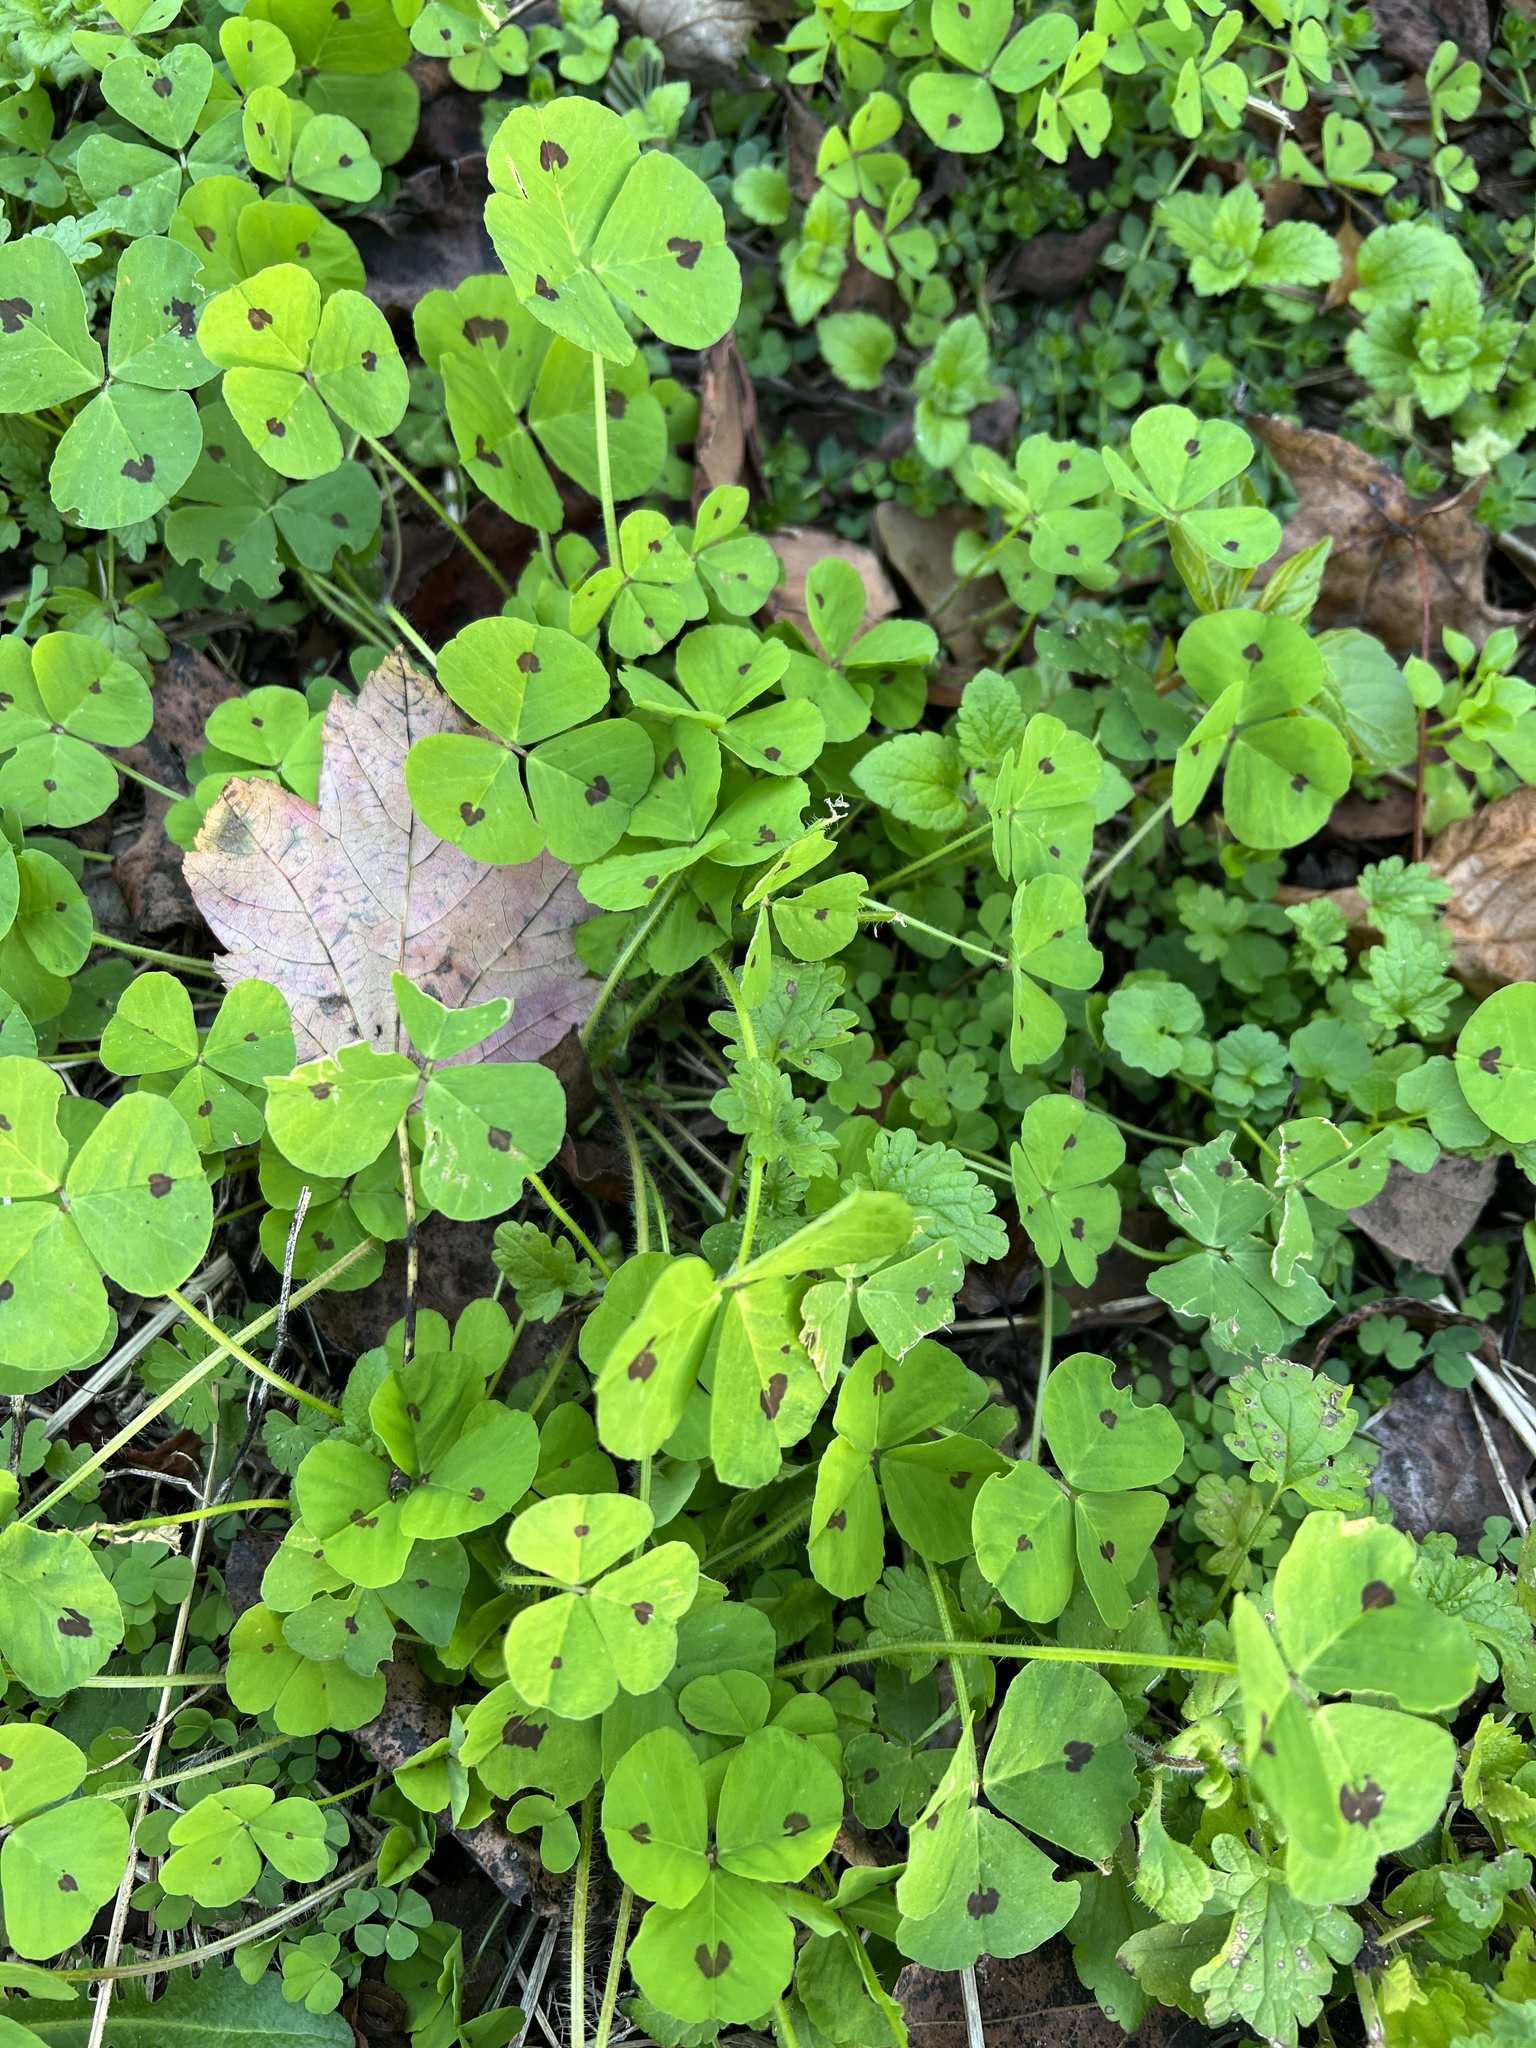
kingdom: Plantae
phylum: Tracheophyta
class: Magnoliopsida
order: Fabales
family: Fabaceae
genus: Medicago
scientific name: Medicago arabica
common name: Spotted medick
